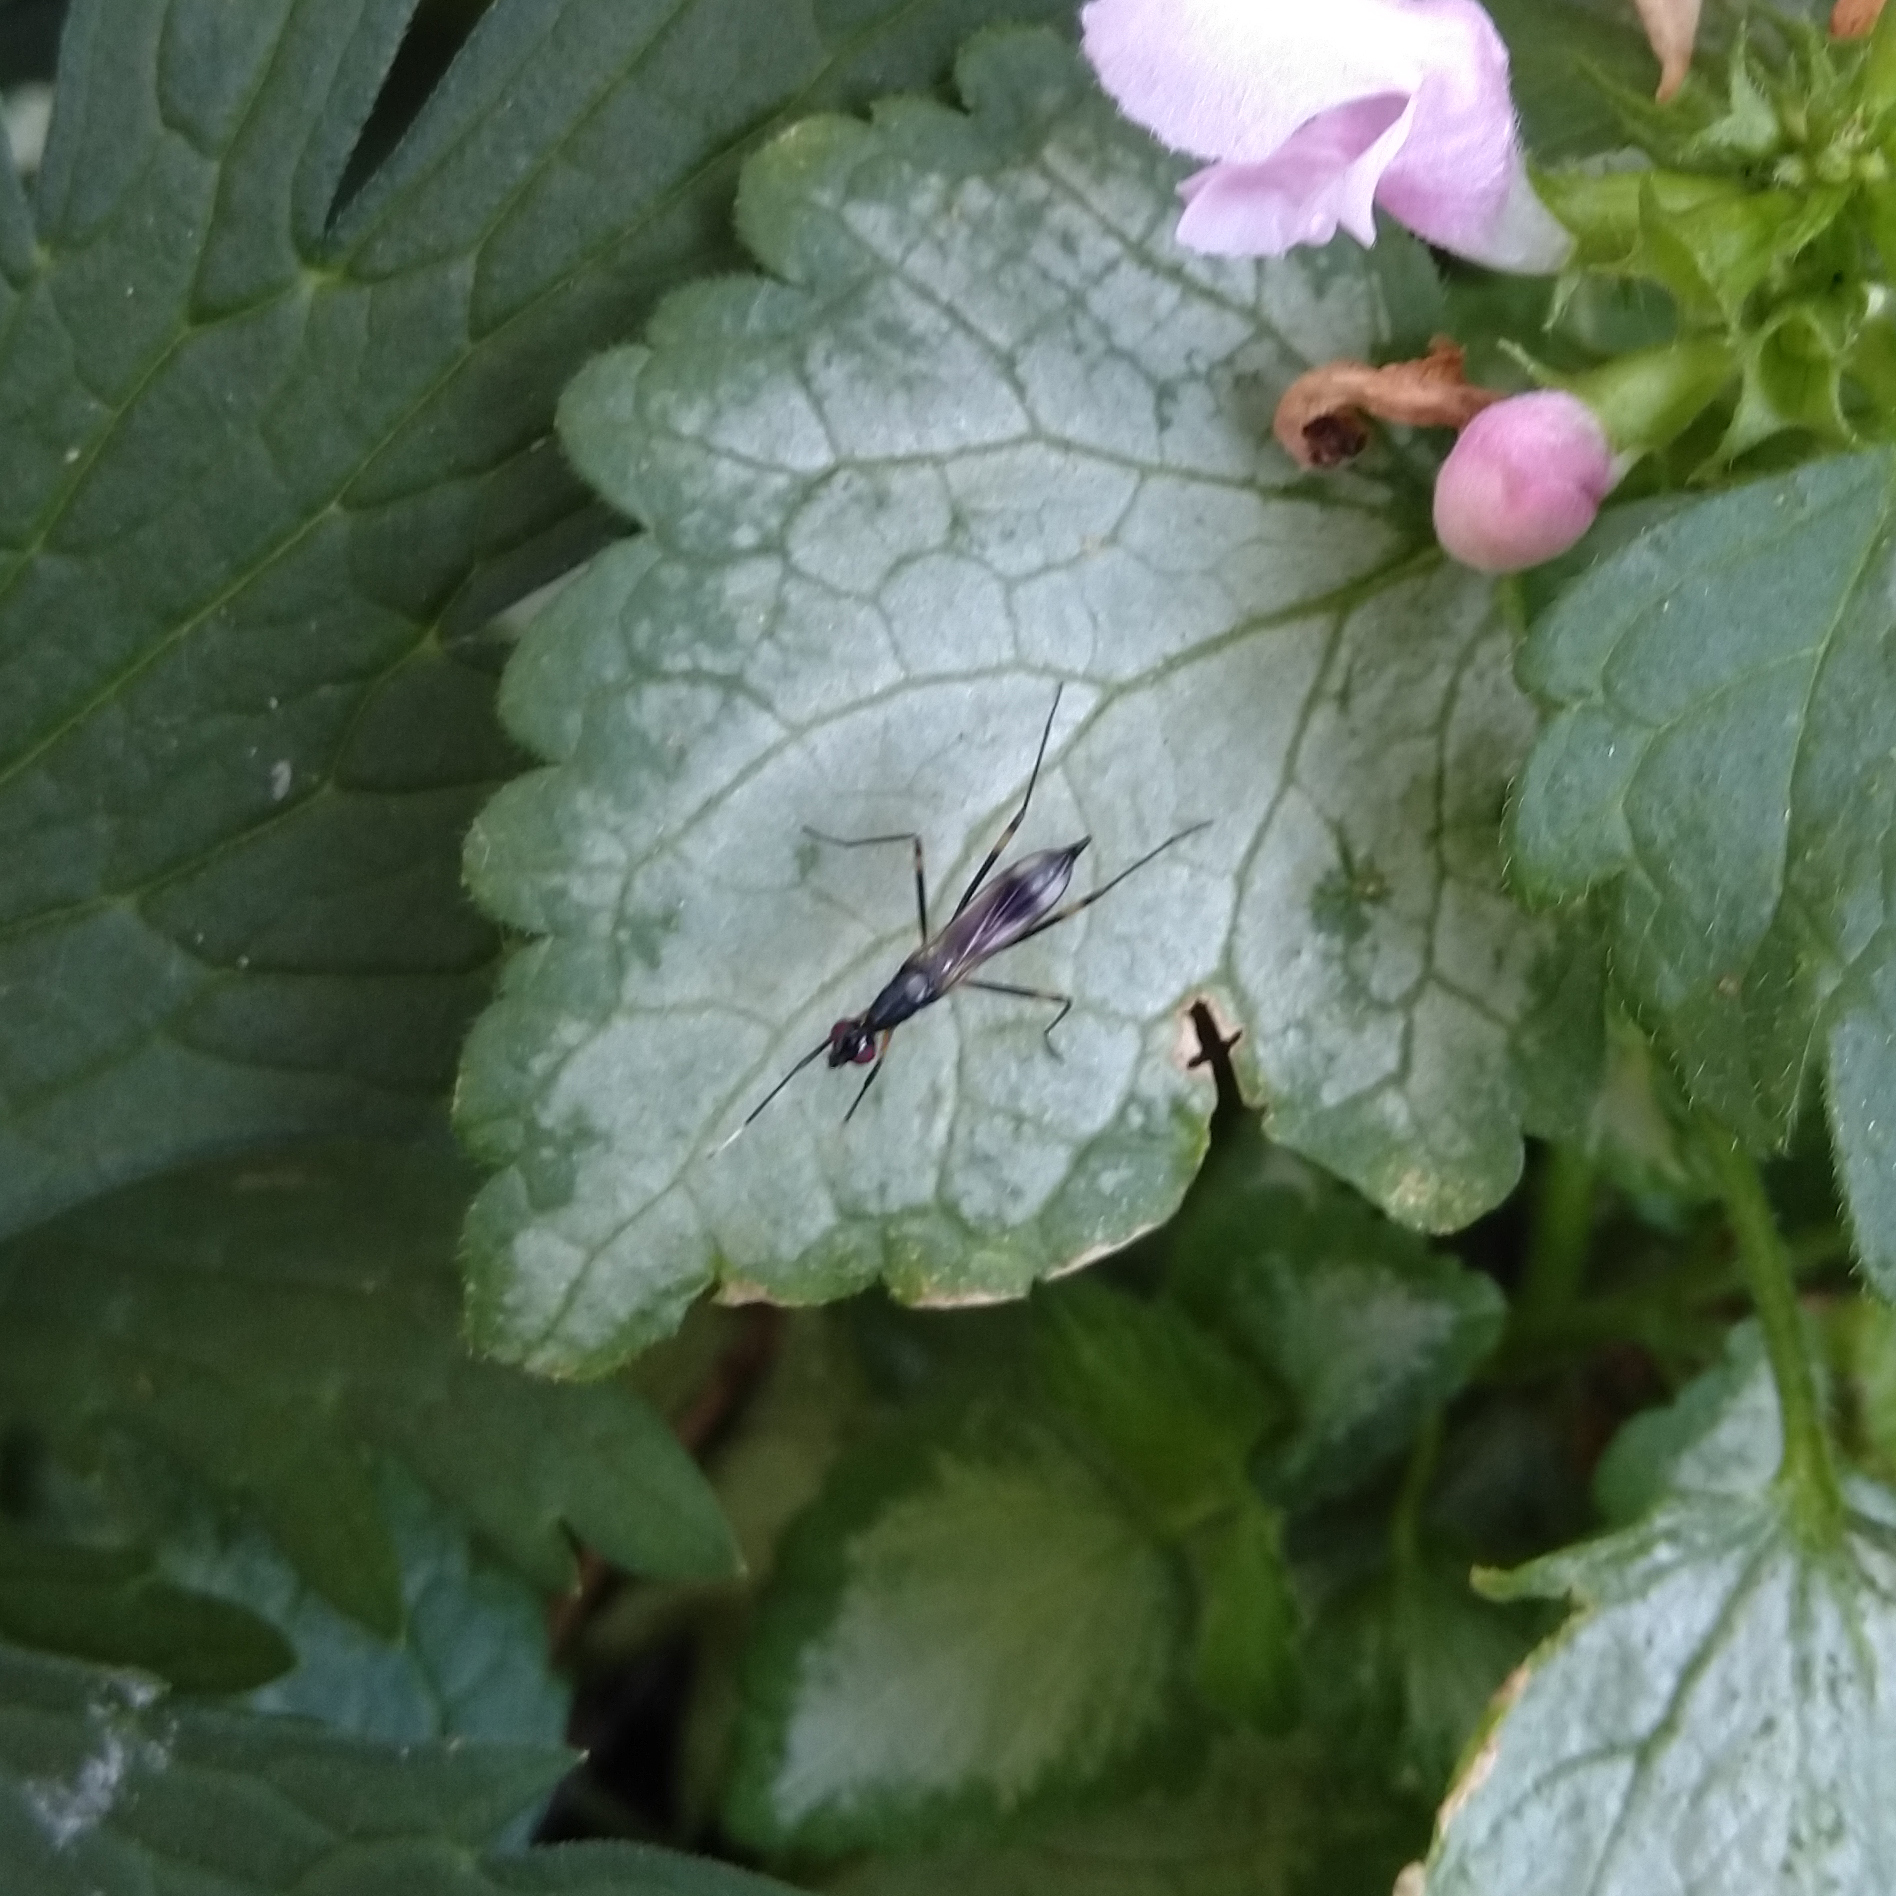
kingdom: Animalia
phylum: Arthropoda
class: Insecta
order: Diptera
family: Micropezidae
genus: Rainieria
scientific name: Rainieria antennaepes
